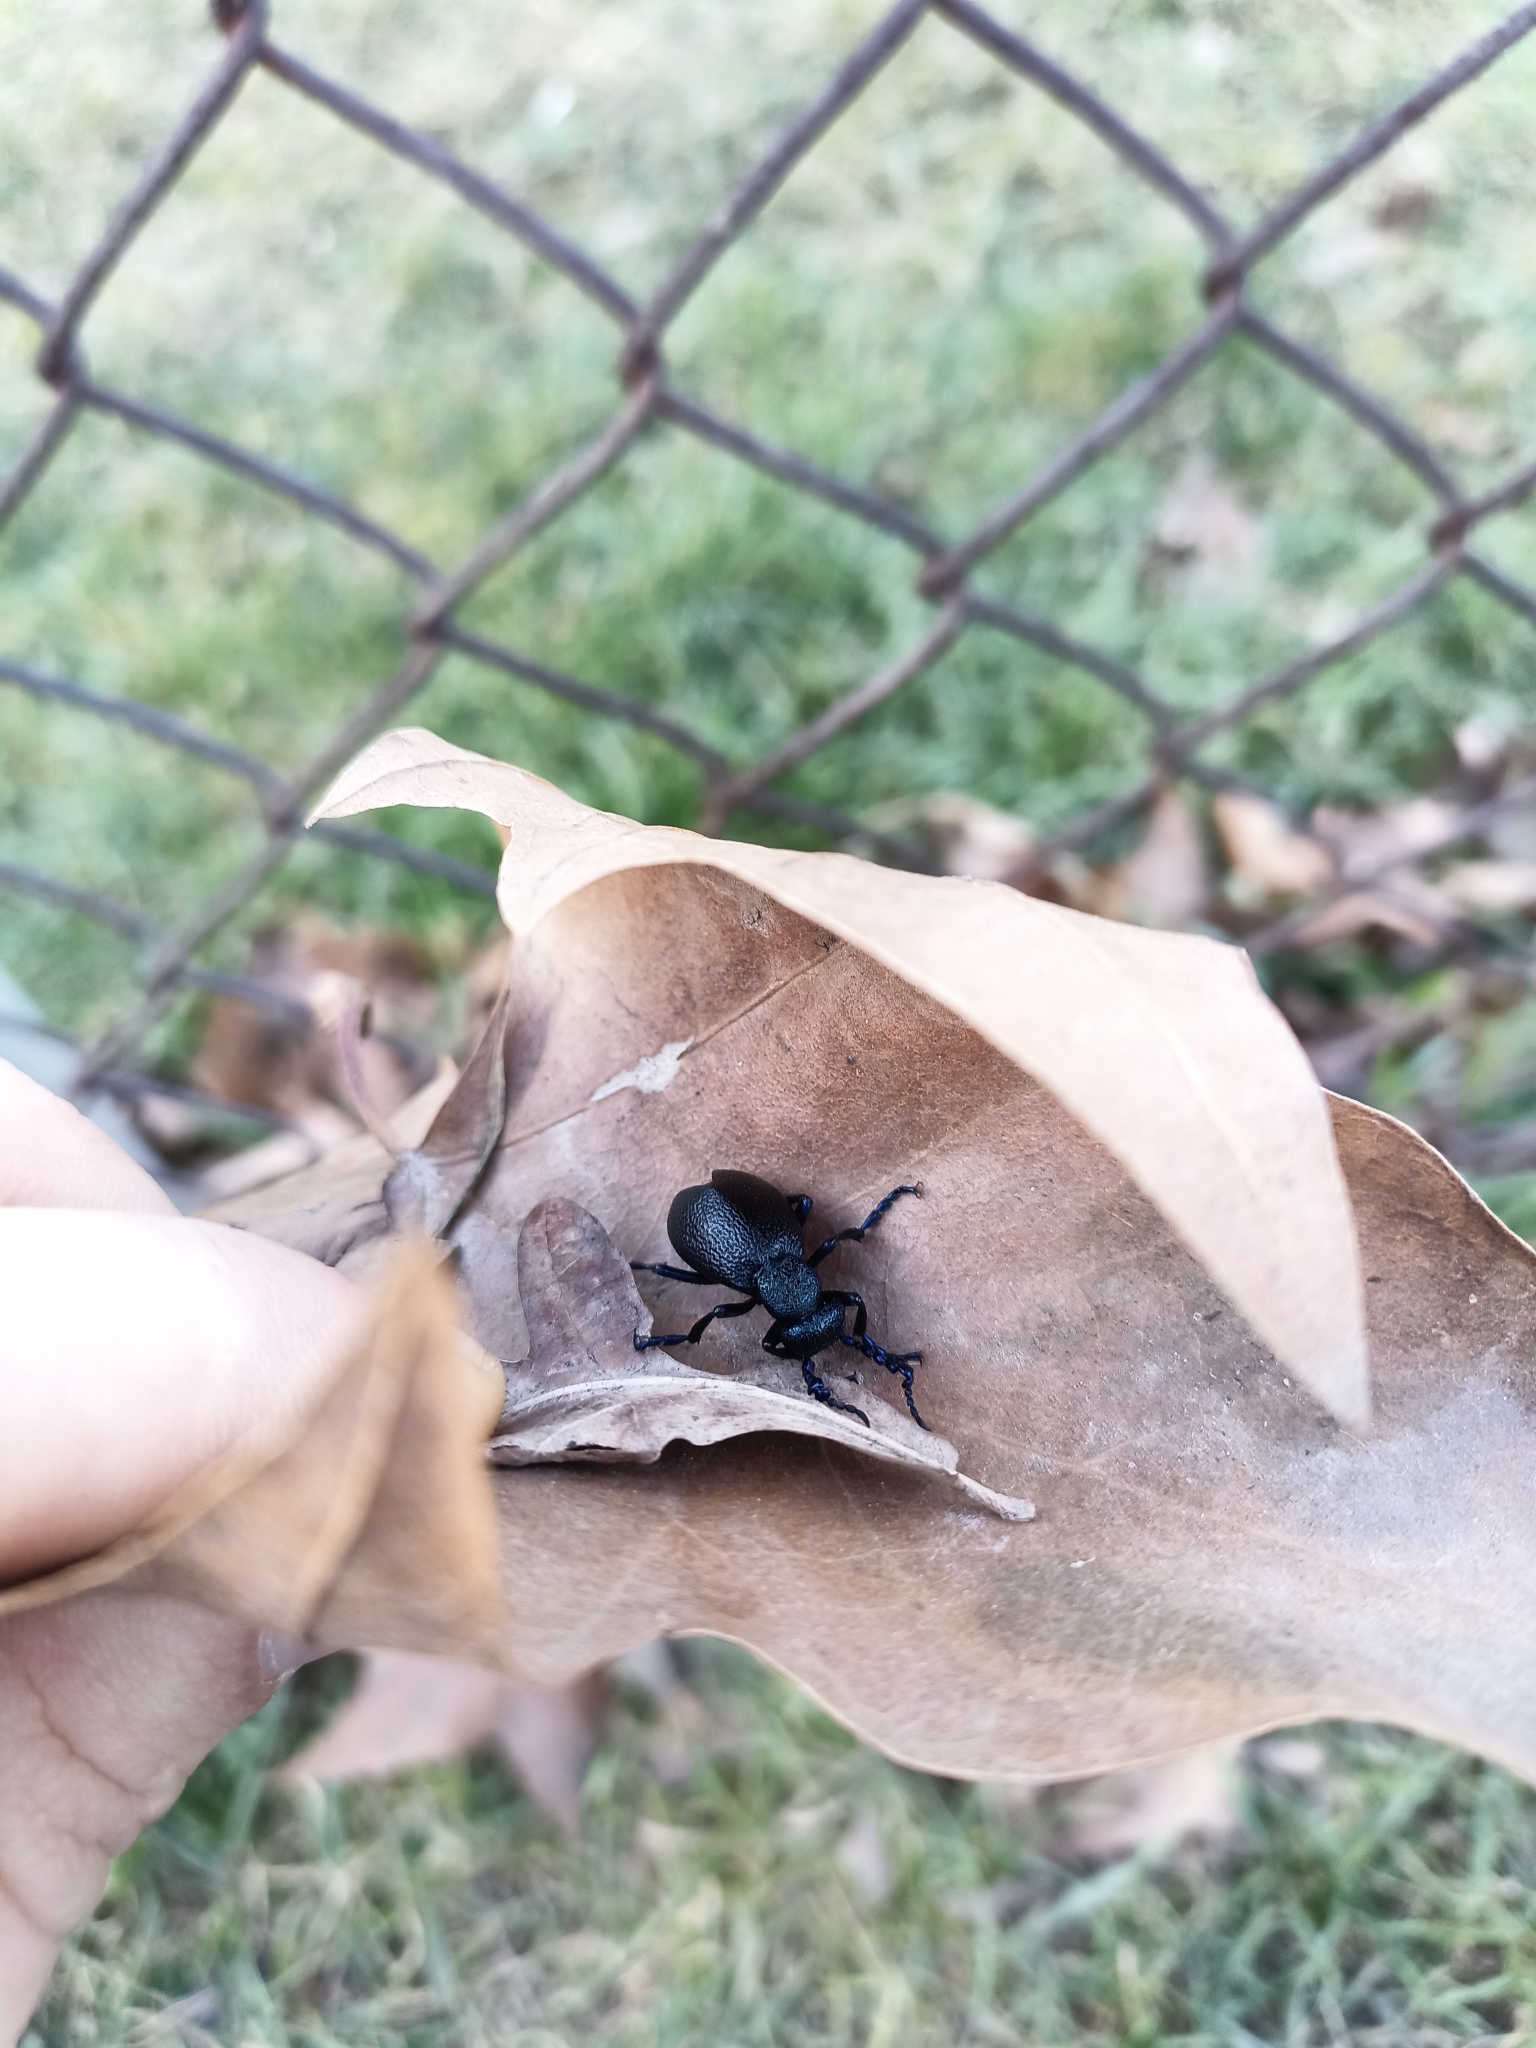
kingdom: Animalia
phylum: Arthropoda
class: Insecta
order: Coleoptera
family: Meloidae
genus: Meloe
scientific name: Meloe proscarabaeus
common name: Black oil-beetle
